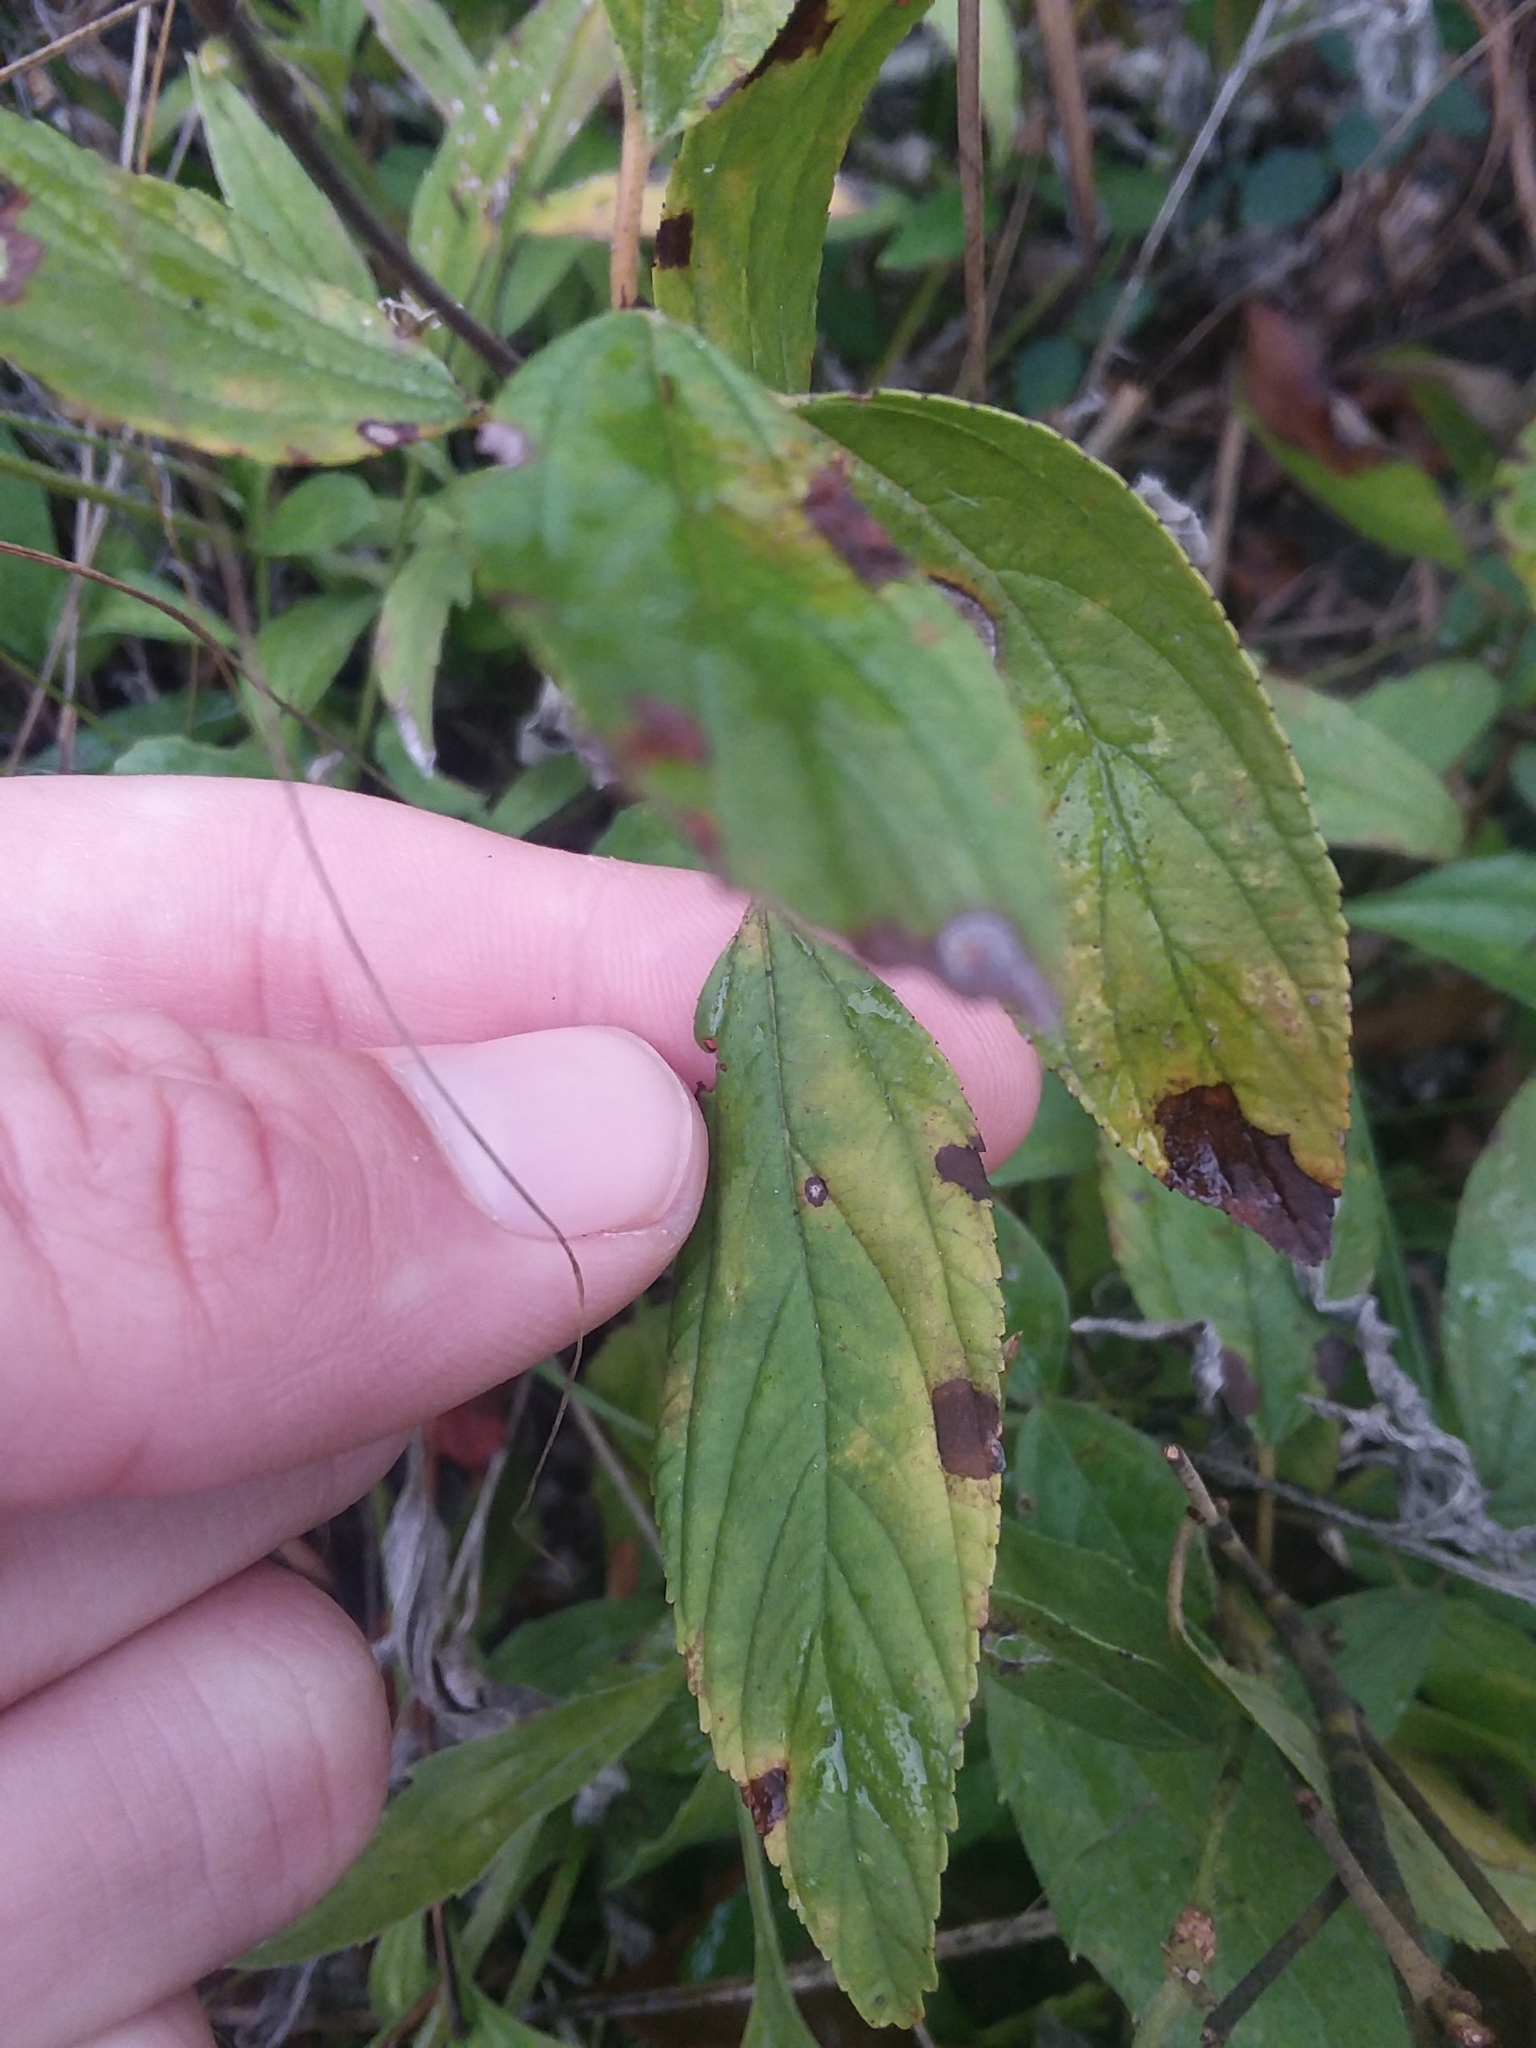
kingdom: Plantae
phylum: Tracheophyta
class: Magnoliopsida
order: Rosales
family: Rhamnaceae
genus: Ceanothus
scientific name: Ceanothus americanus
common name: Redroot
